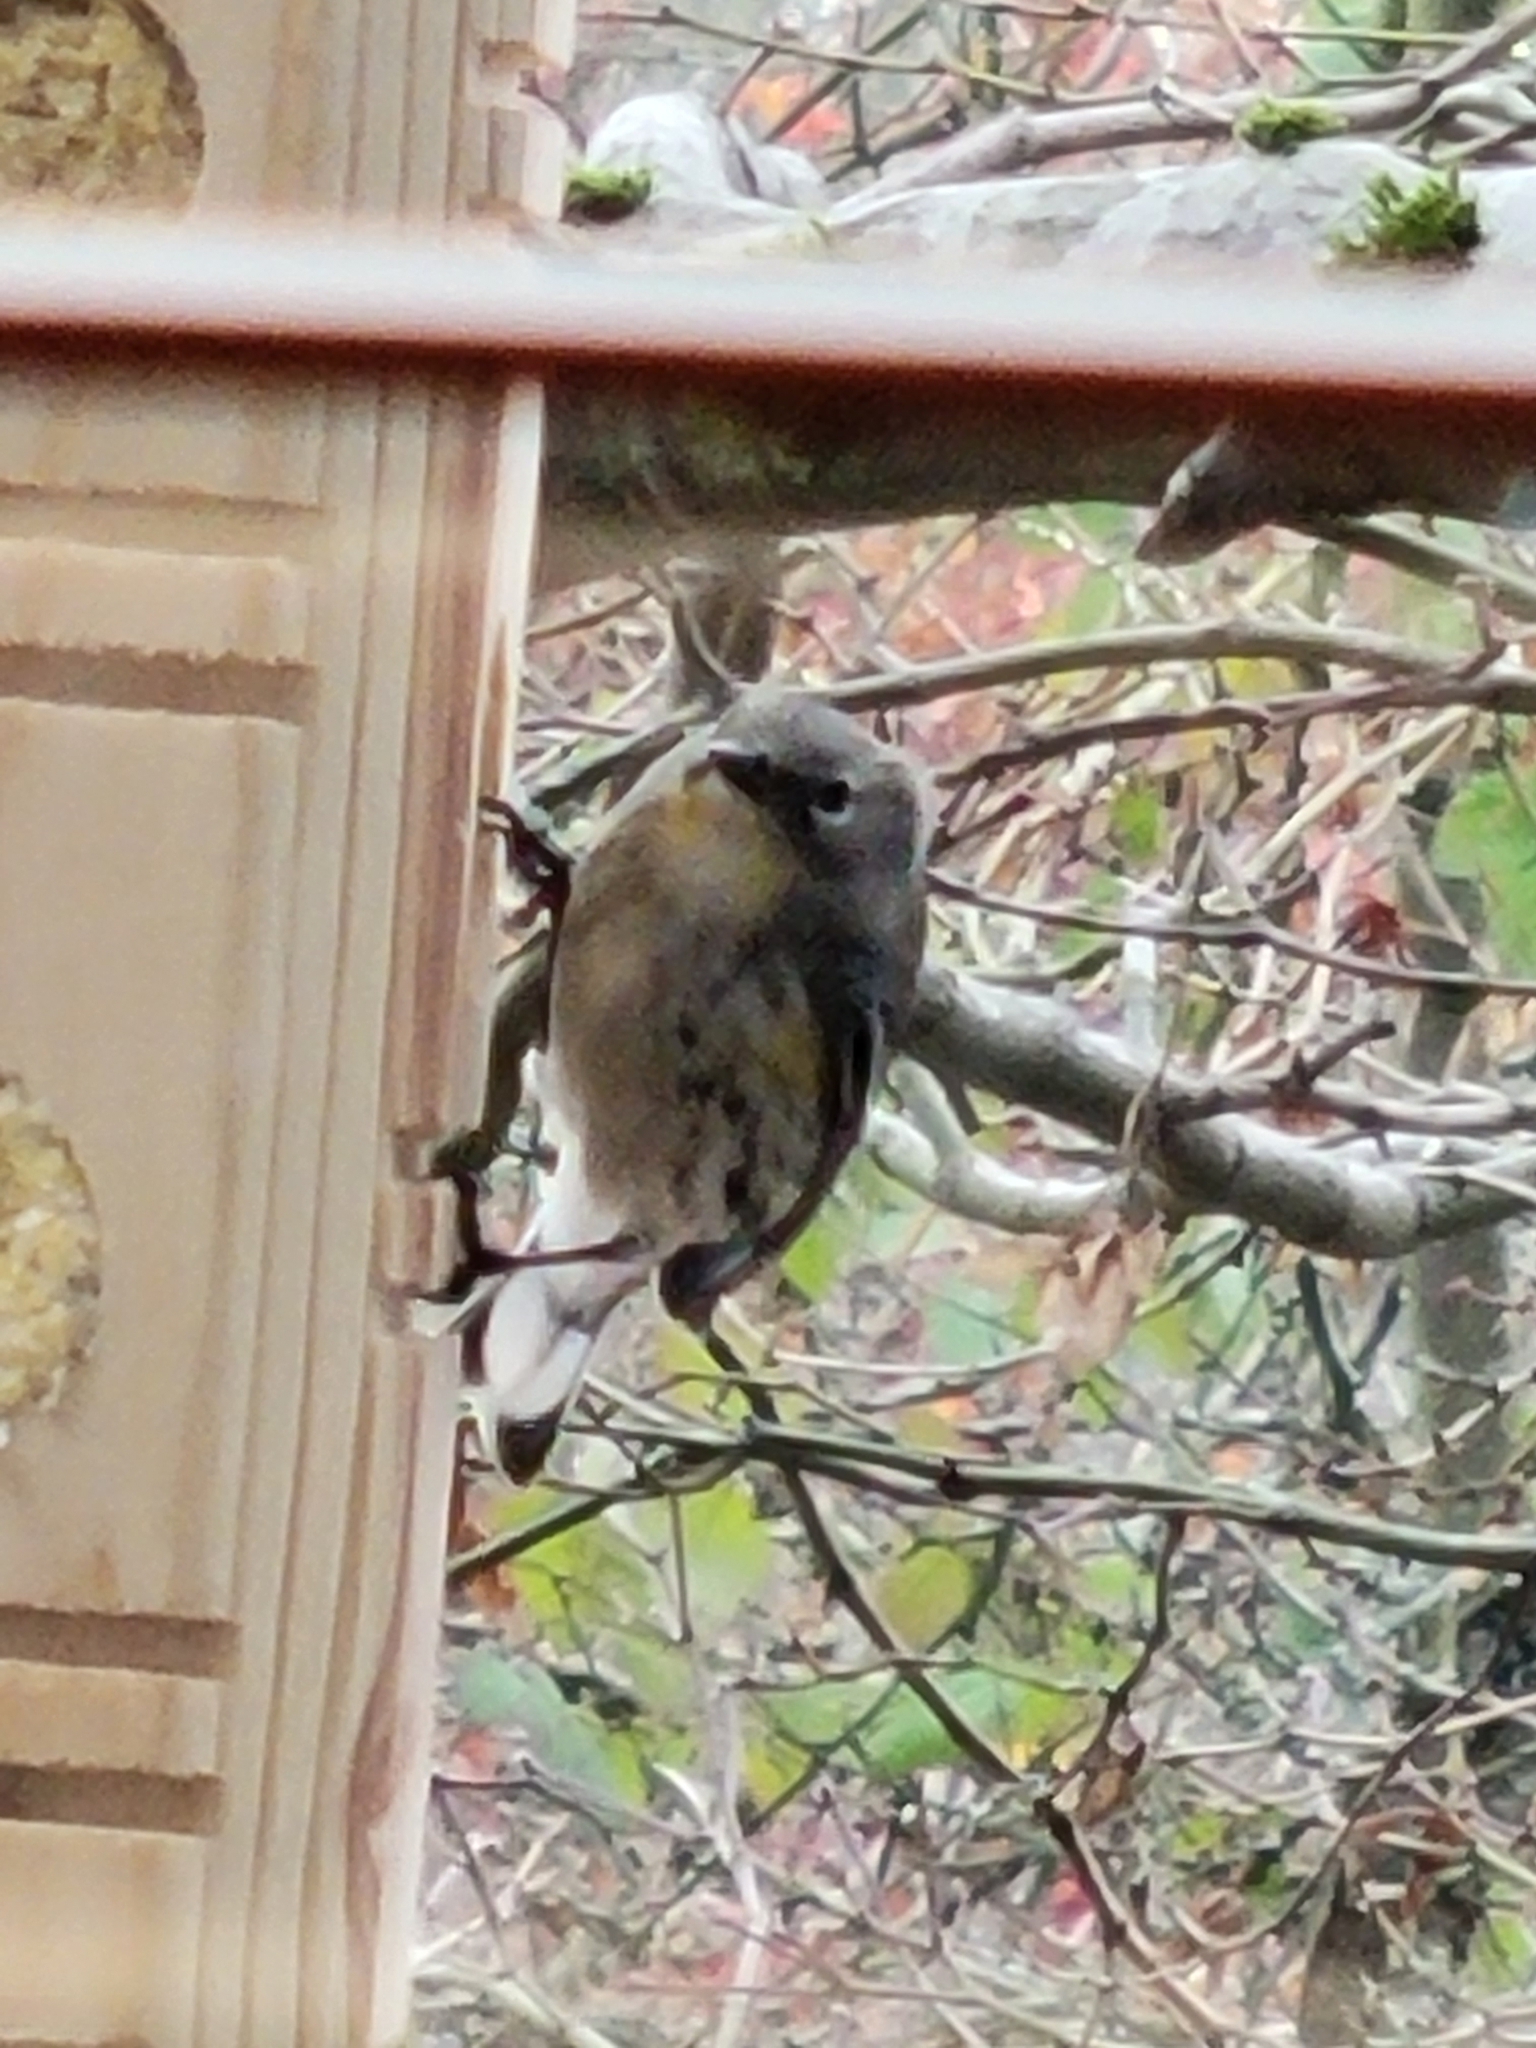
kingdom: Animalia
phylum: Chordata
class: Aves
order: Passeriformes
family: Parulidae
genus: Setophaga
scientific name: Setophaga coronata
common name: Myrtle warbler
